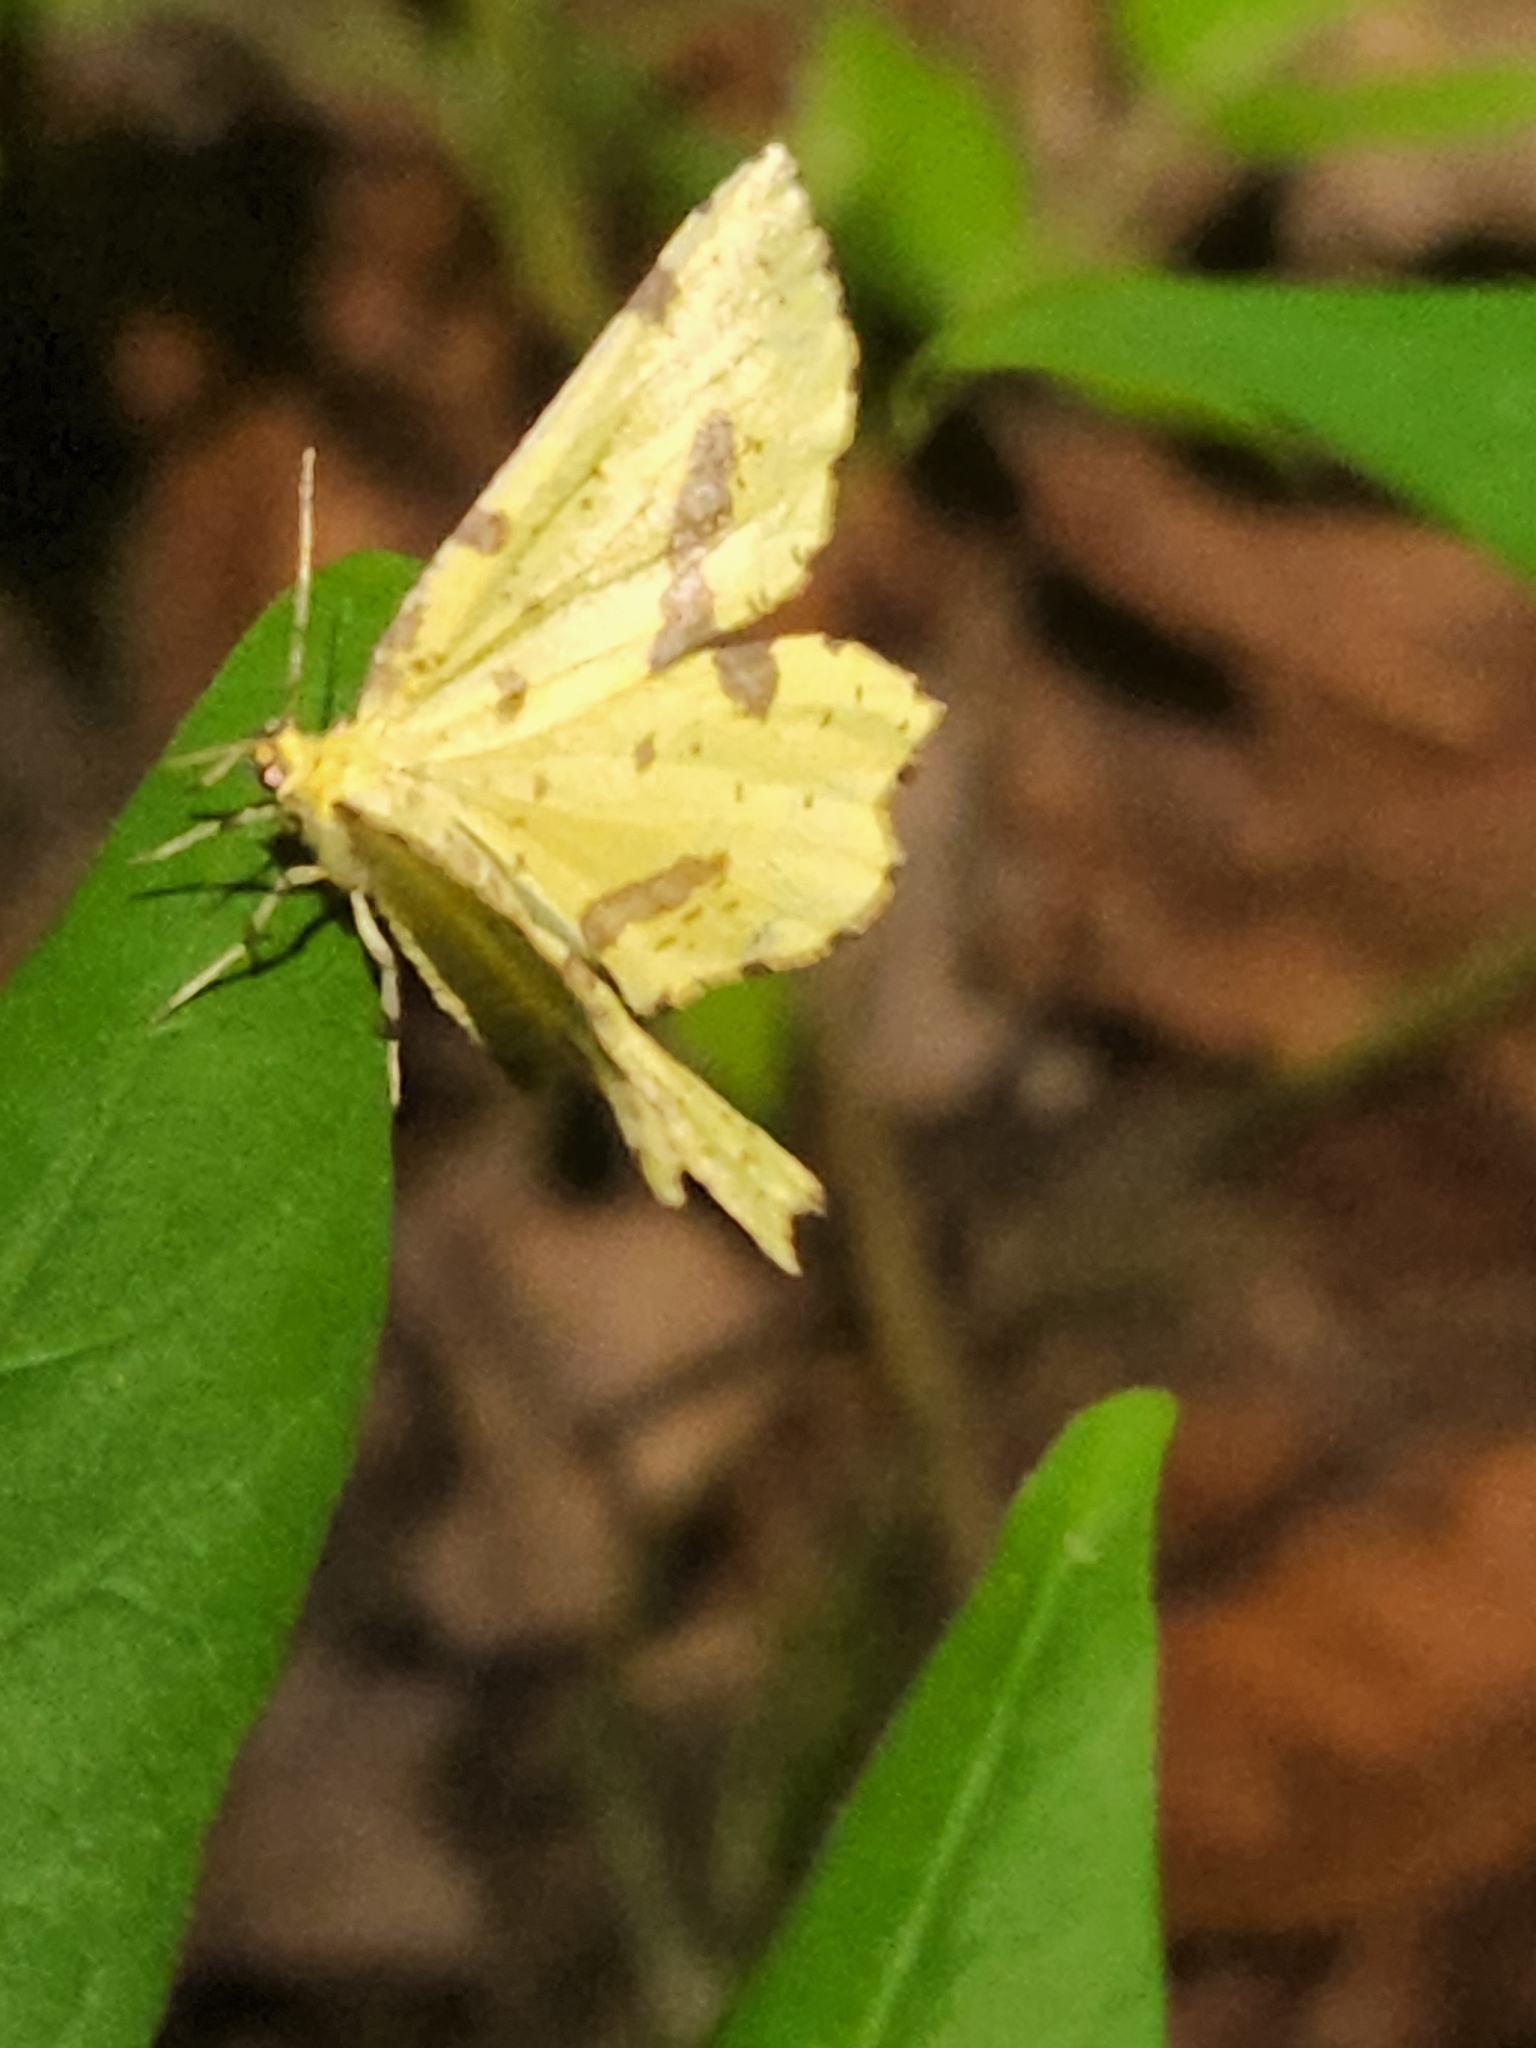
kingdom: Animalia
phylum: Arthropoda
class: Insecta
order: Lepidoptera
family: Geometridae
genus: Xanthotype
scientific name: Xanthotype
